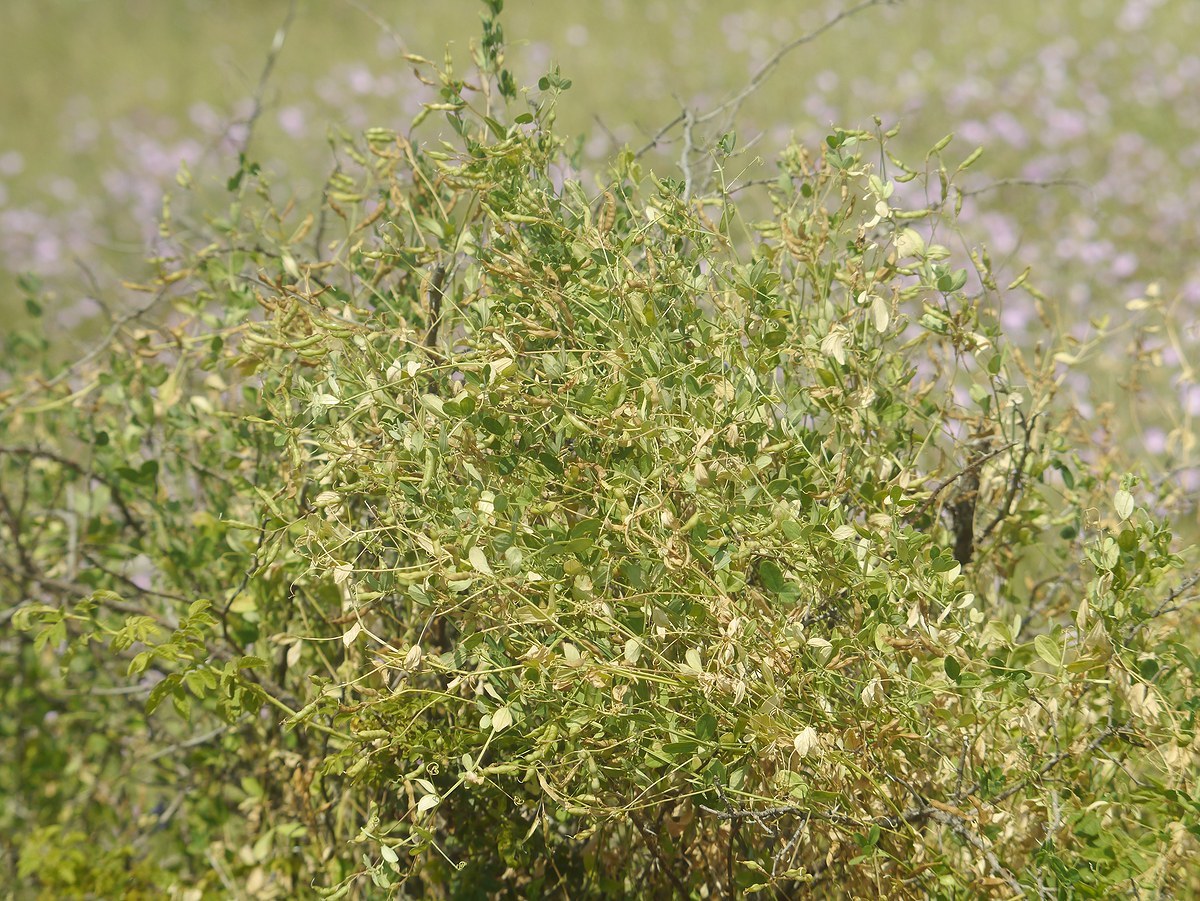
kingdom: Plantae
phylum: Tracheophyta
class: Magnoliopsida
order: Fabales
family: Fabaceae
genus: Lathyrus
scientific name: Lathyrus tuberosus
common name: Tuberous pea
